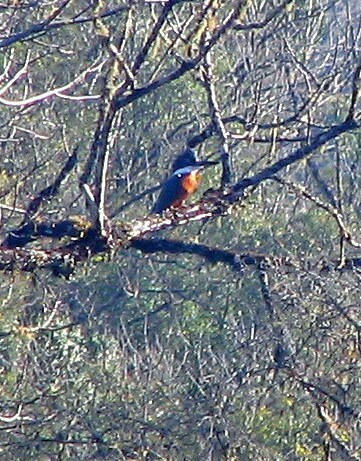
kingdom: Animalia
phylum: Chordata
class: Aves
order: Coraciiformes
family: Alcedinidae
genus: Megaceryle
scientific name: Megaceryle torquata
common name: Ringed kingfisher
